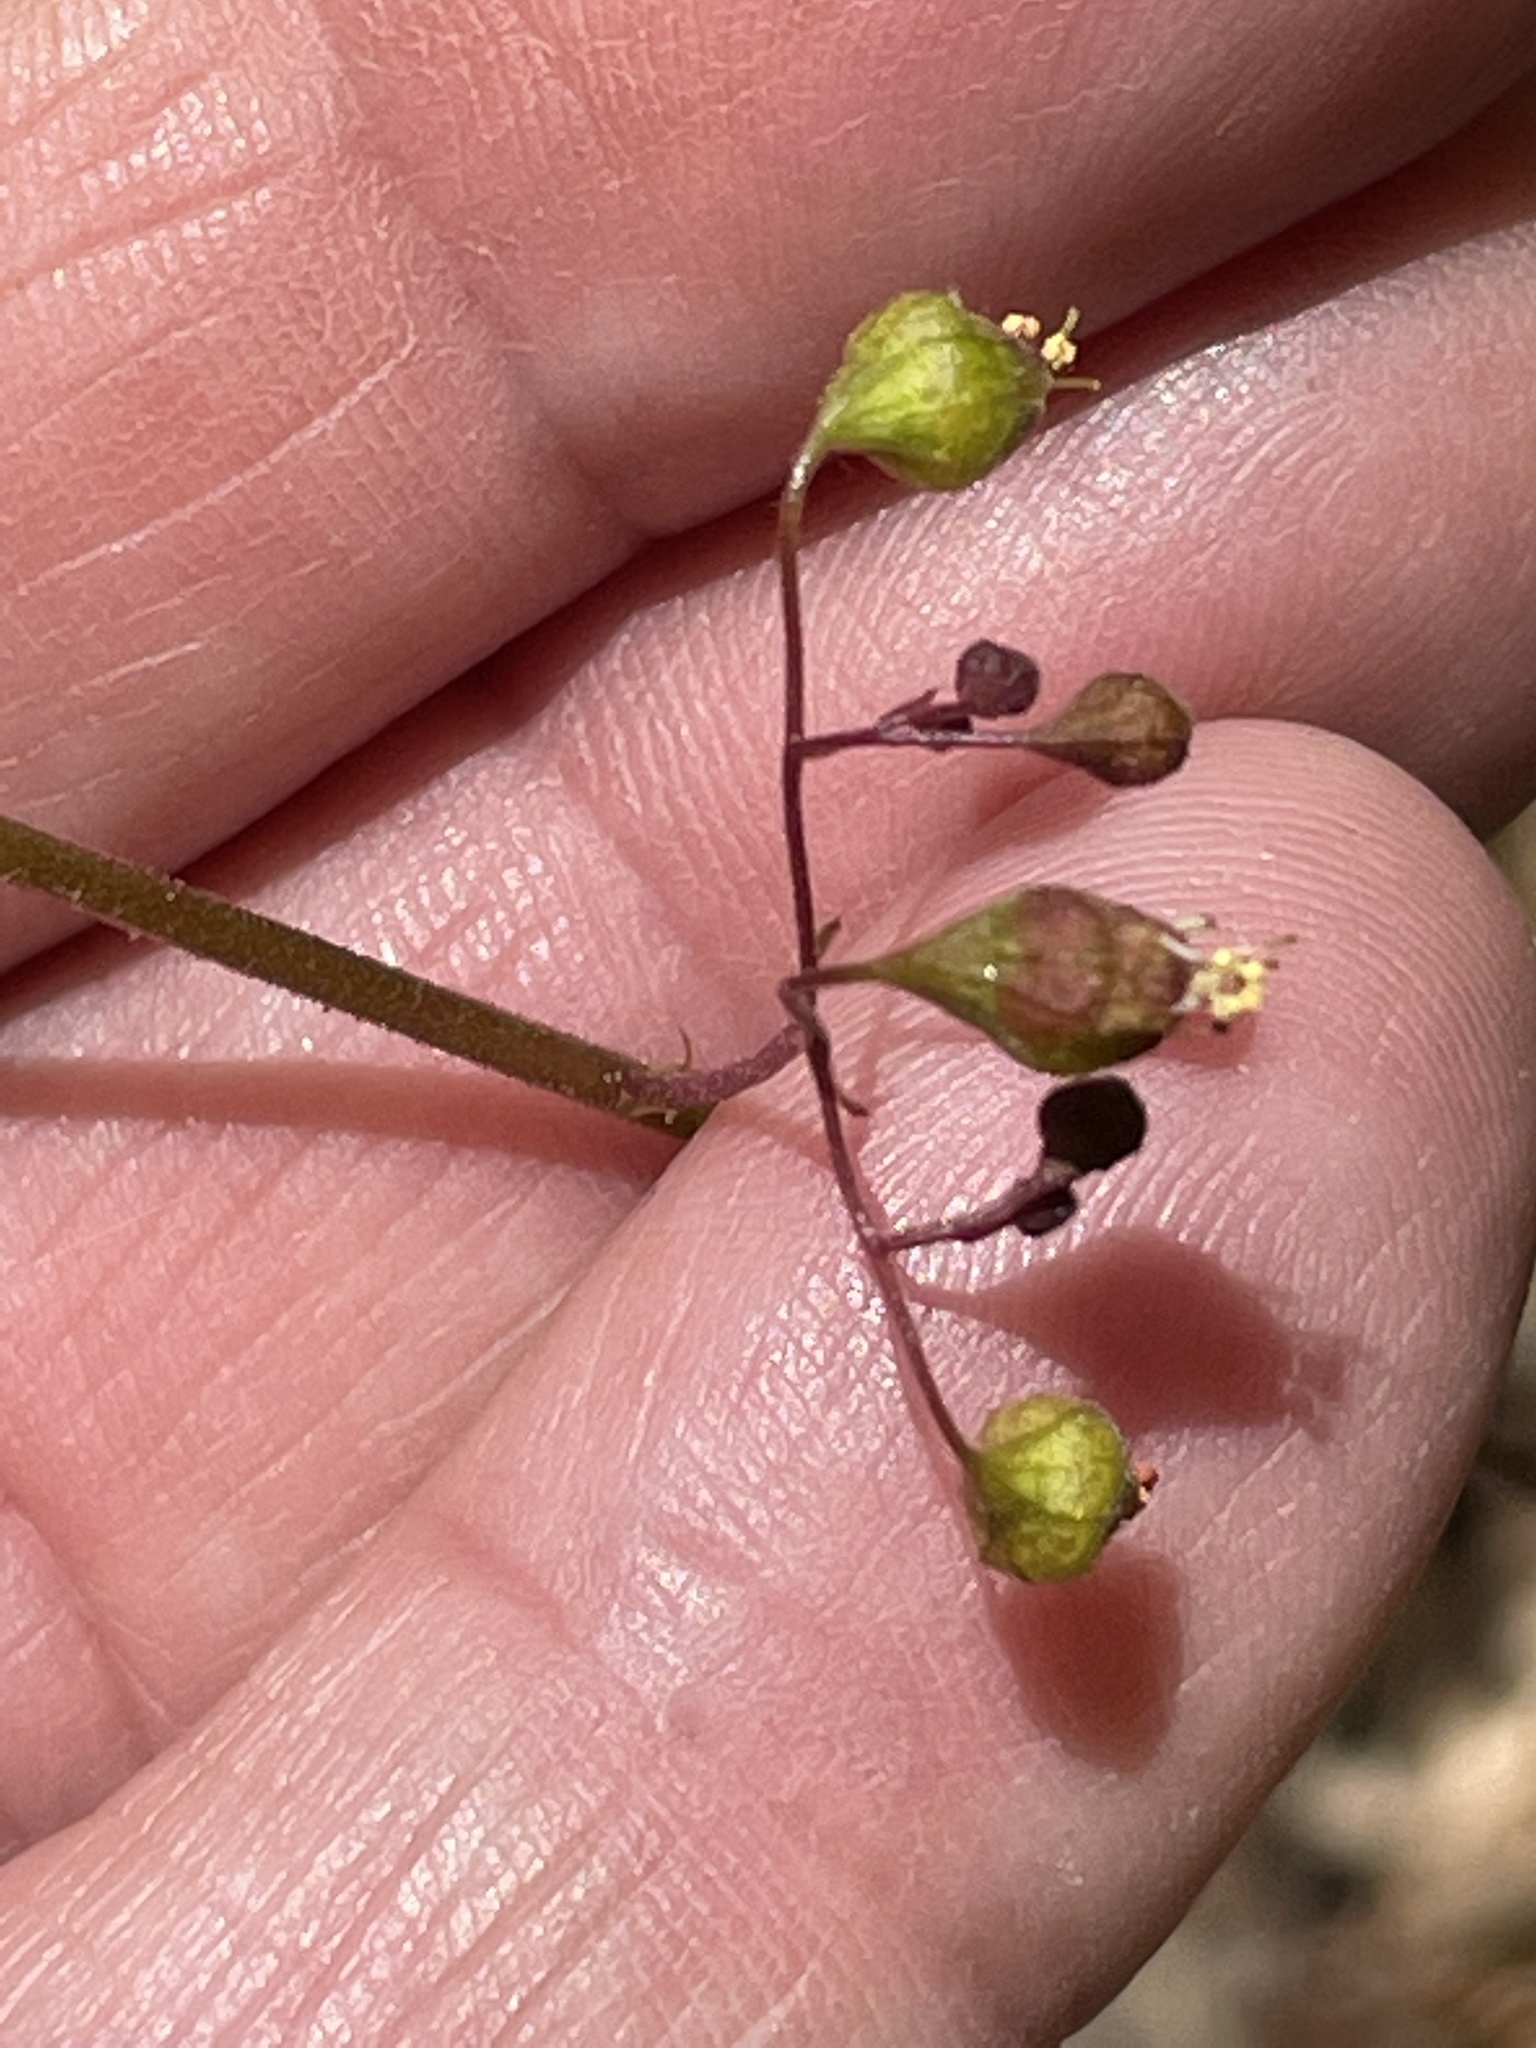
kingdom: Plantae
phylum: Tracheophyta
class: Magnoliopsida
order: Saxifragales
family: Saxifragaceae
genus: Heuchera
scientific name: Heuchera caroliniana
